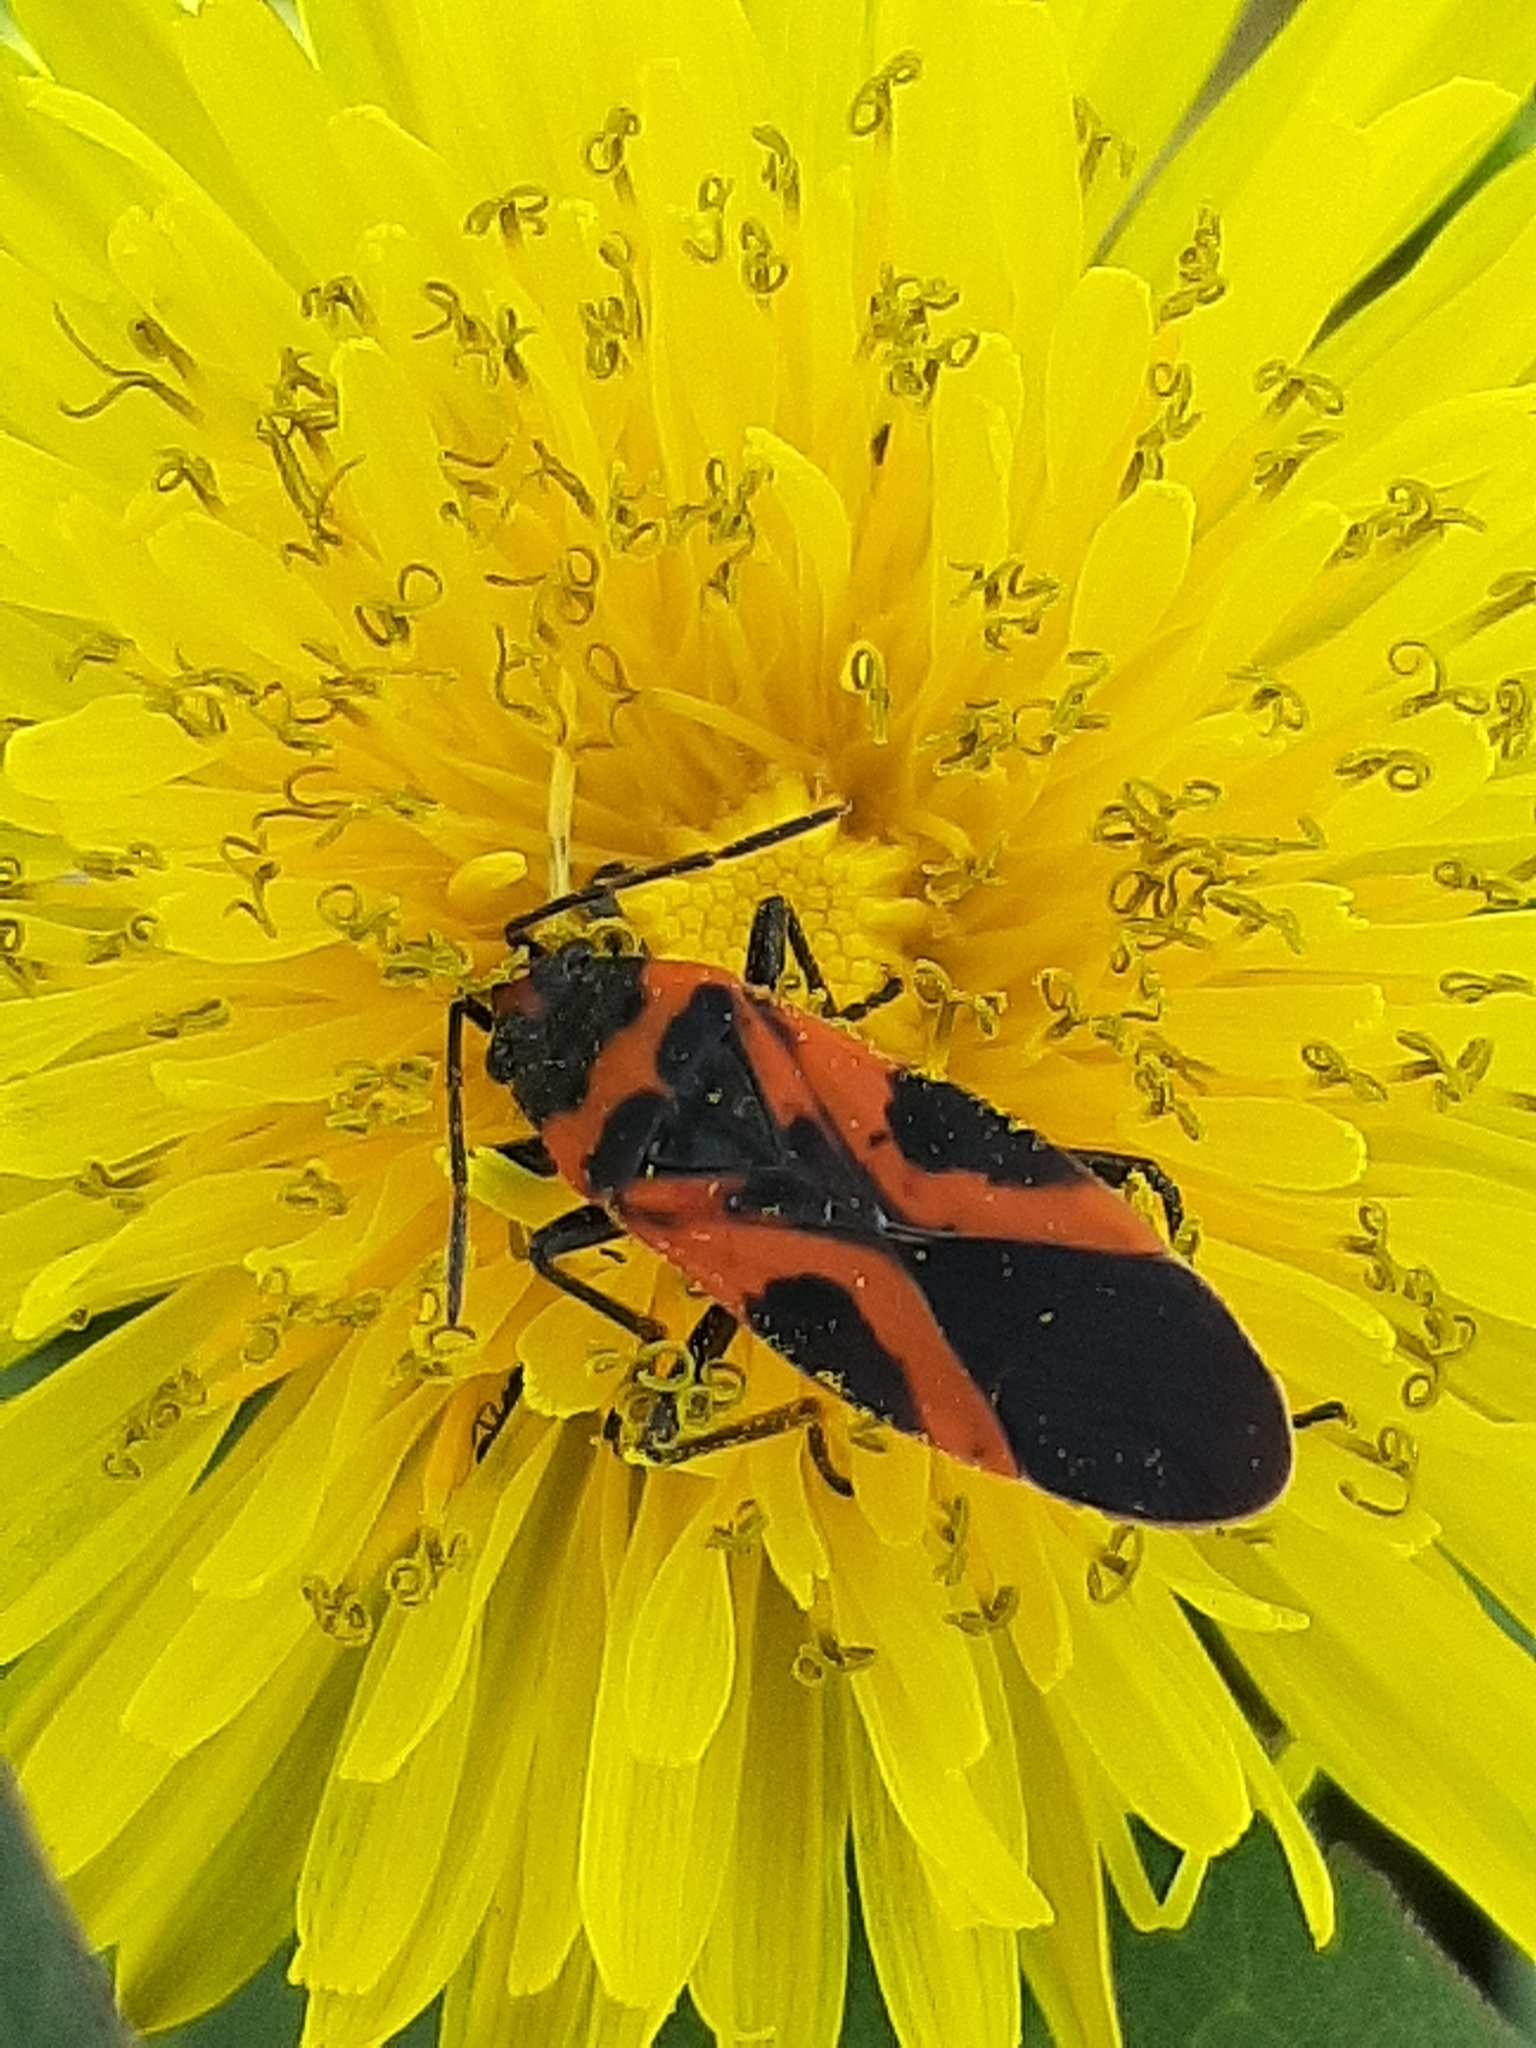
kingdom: Animalia
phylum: Arthropoda
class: Insecta
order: Hemiptera
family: Lygaeidae
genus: Lygaeus
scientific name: Lygaeus turcicus
